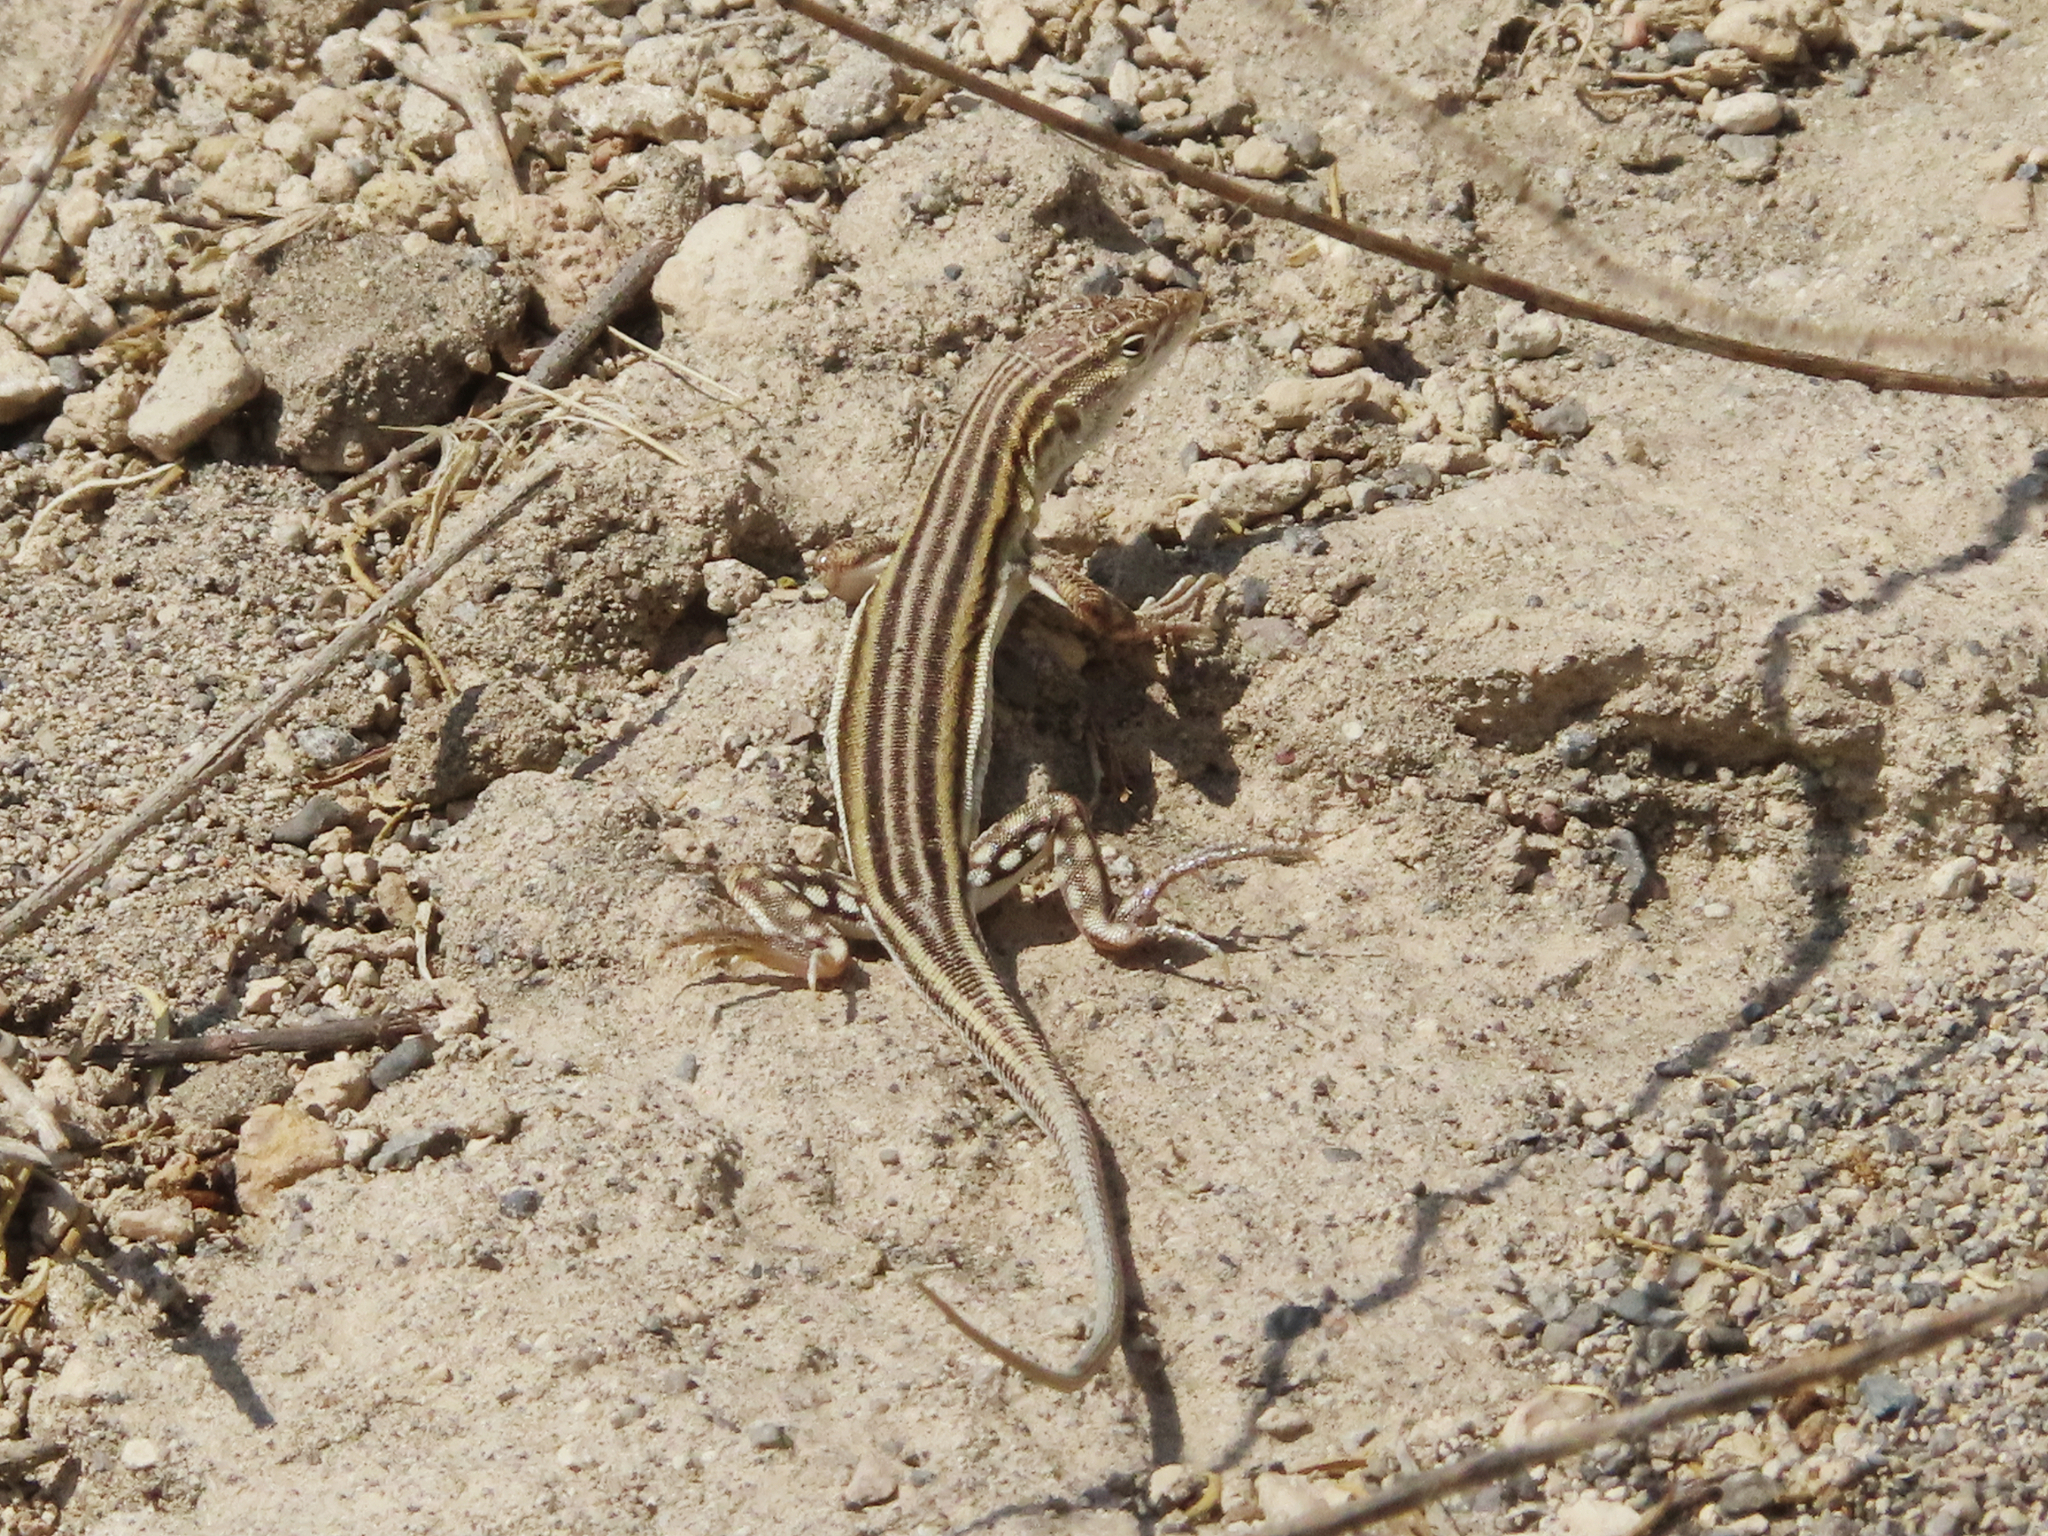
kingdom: Animalia
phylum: Chordata
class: Squamata
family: Lacertidae
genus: Eremias
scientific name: Eremias pleskei
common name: Pleske's racerunner
